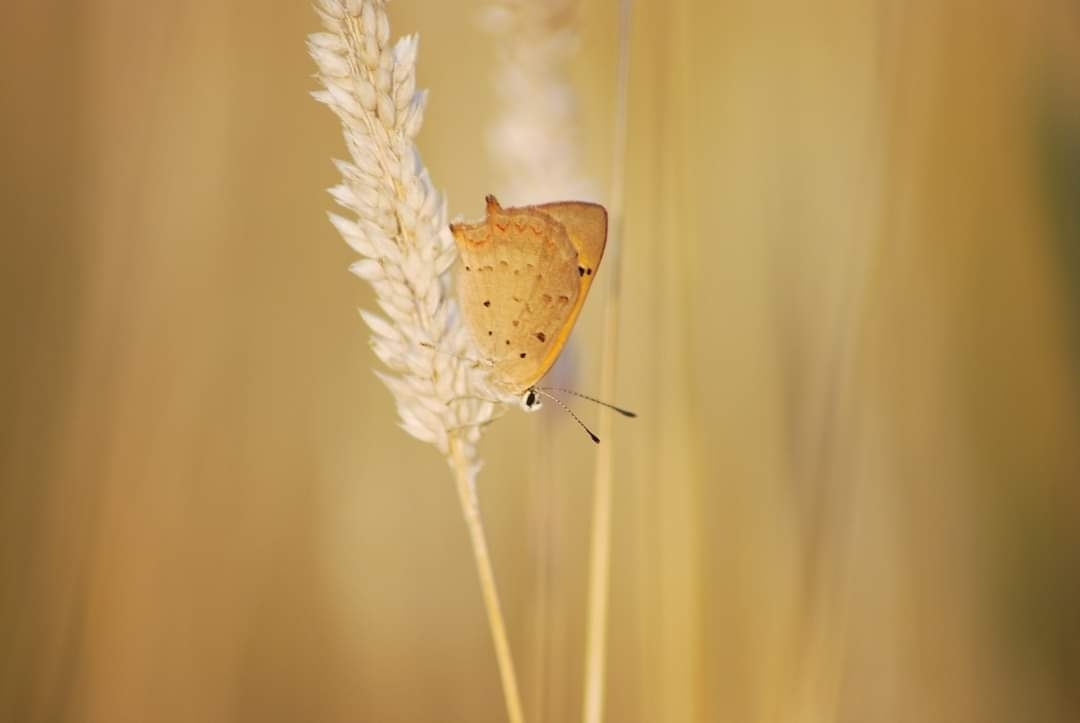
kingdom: Animalia
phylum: Arthropoda
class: Insecta
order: Lepidoptera
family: Lycaenidae
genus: Lycaena
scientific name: Lycaena phlaeas
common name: Small copper
